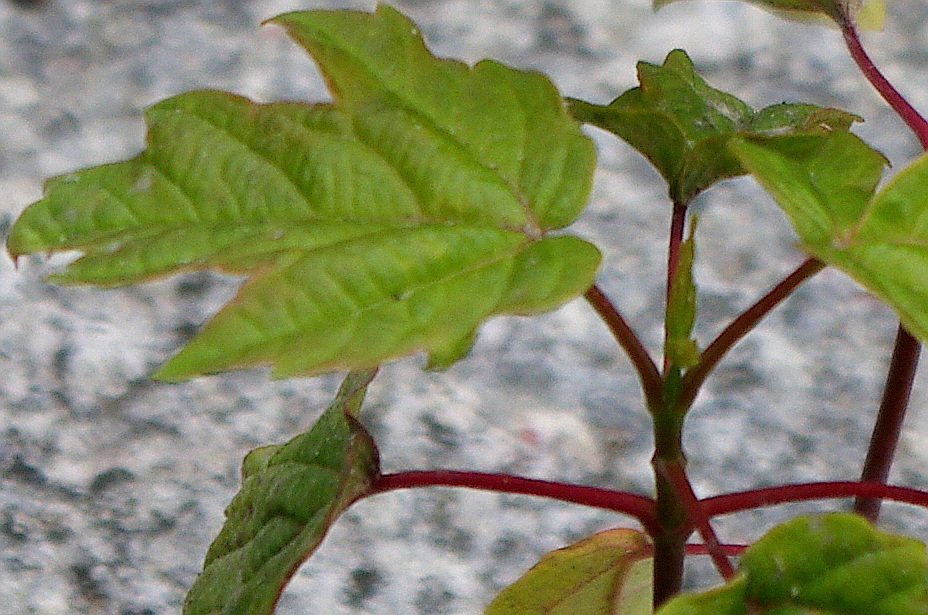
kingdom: Plantae
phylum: Tracheophyta
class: Magnoliopsida
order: Sapindales
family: Sapindaceae
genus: Acer
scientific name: Acer negundo
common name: Ashleaf maple
